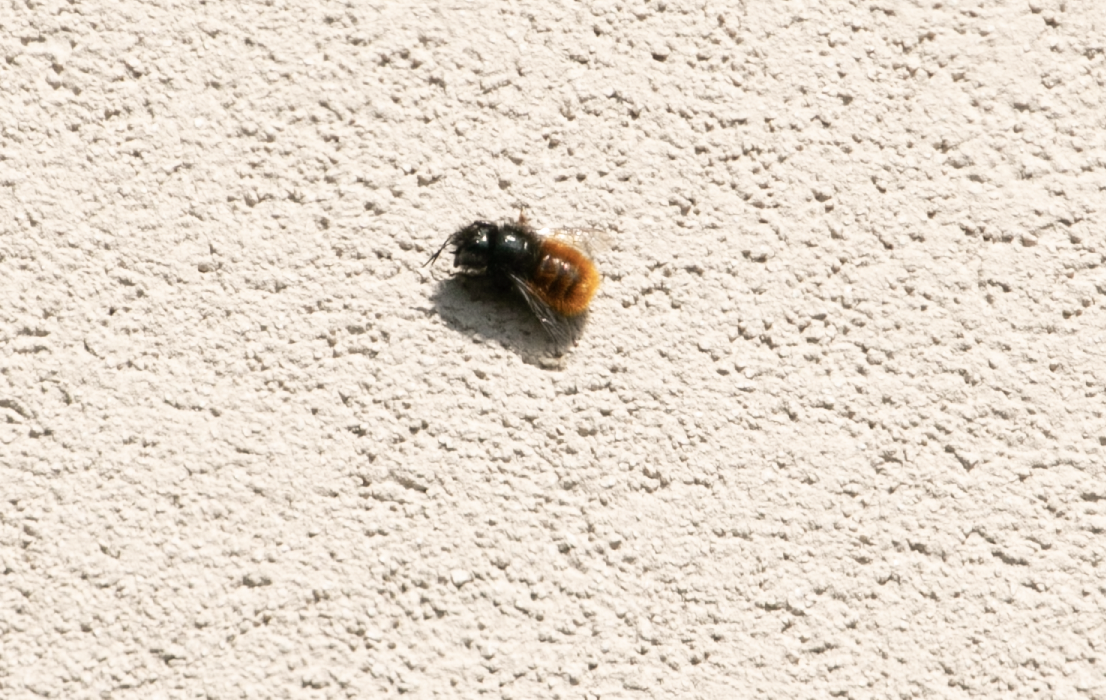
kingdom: Animalia
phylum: Arthropoda
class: Insecta
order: Hymenoptera
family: Megachilidae
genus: Osmia
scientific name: Osmia cornuta
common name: Mason bee
